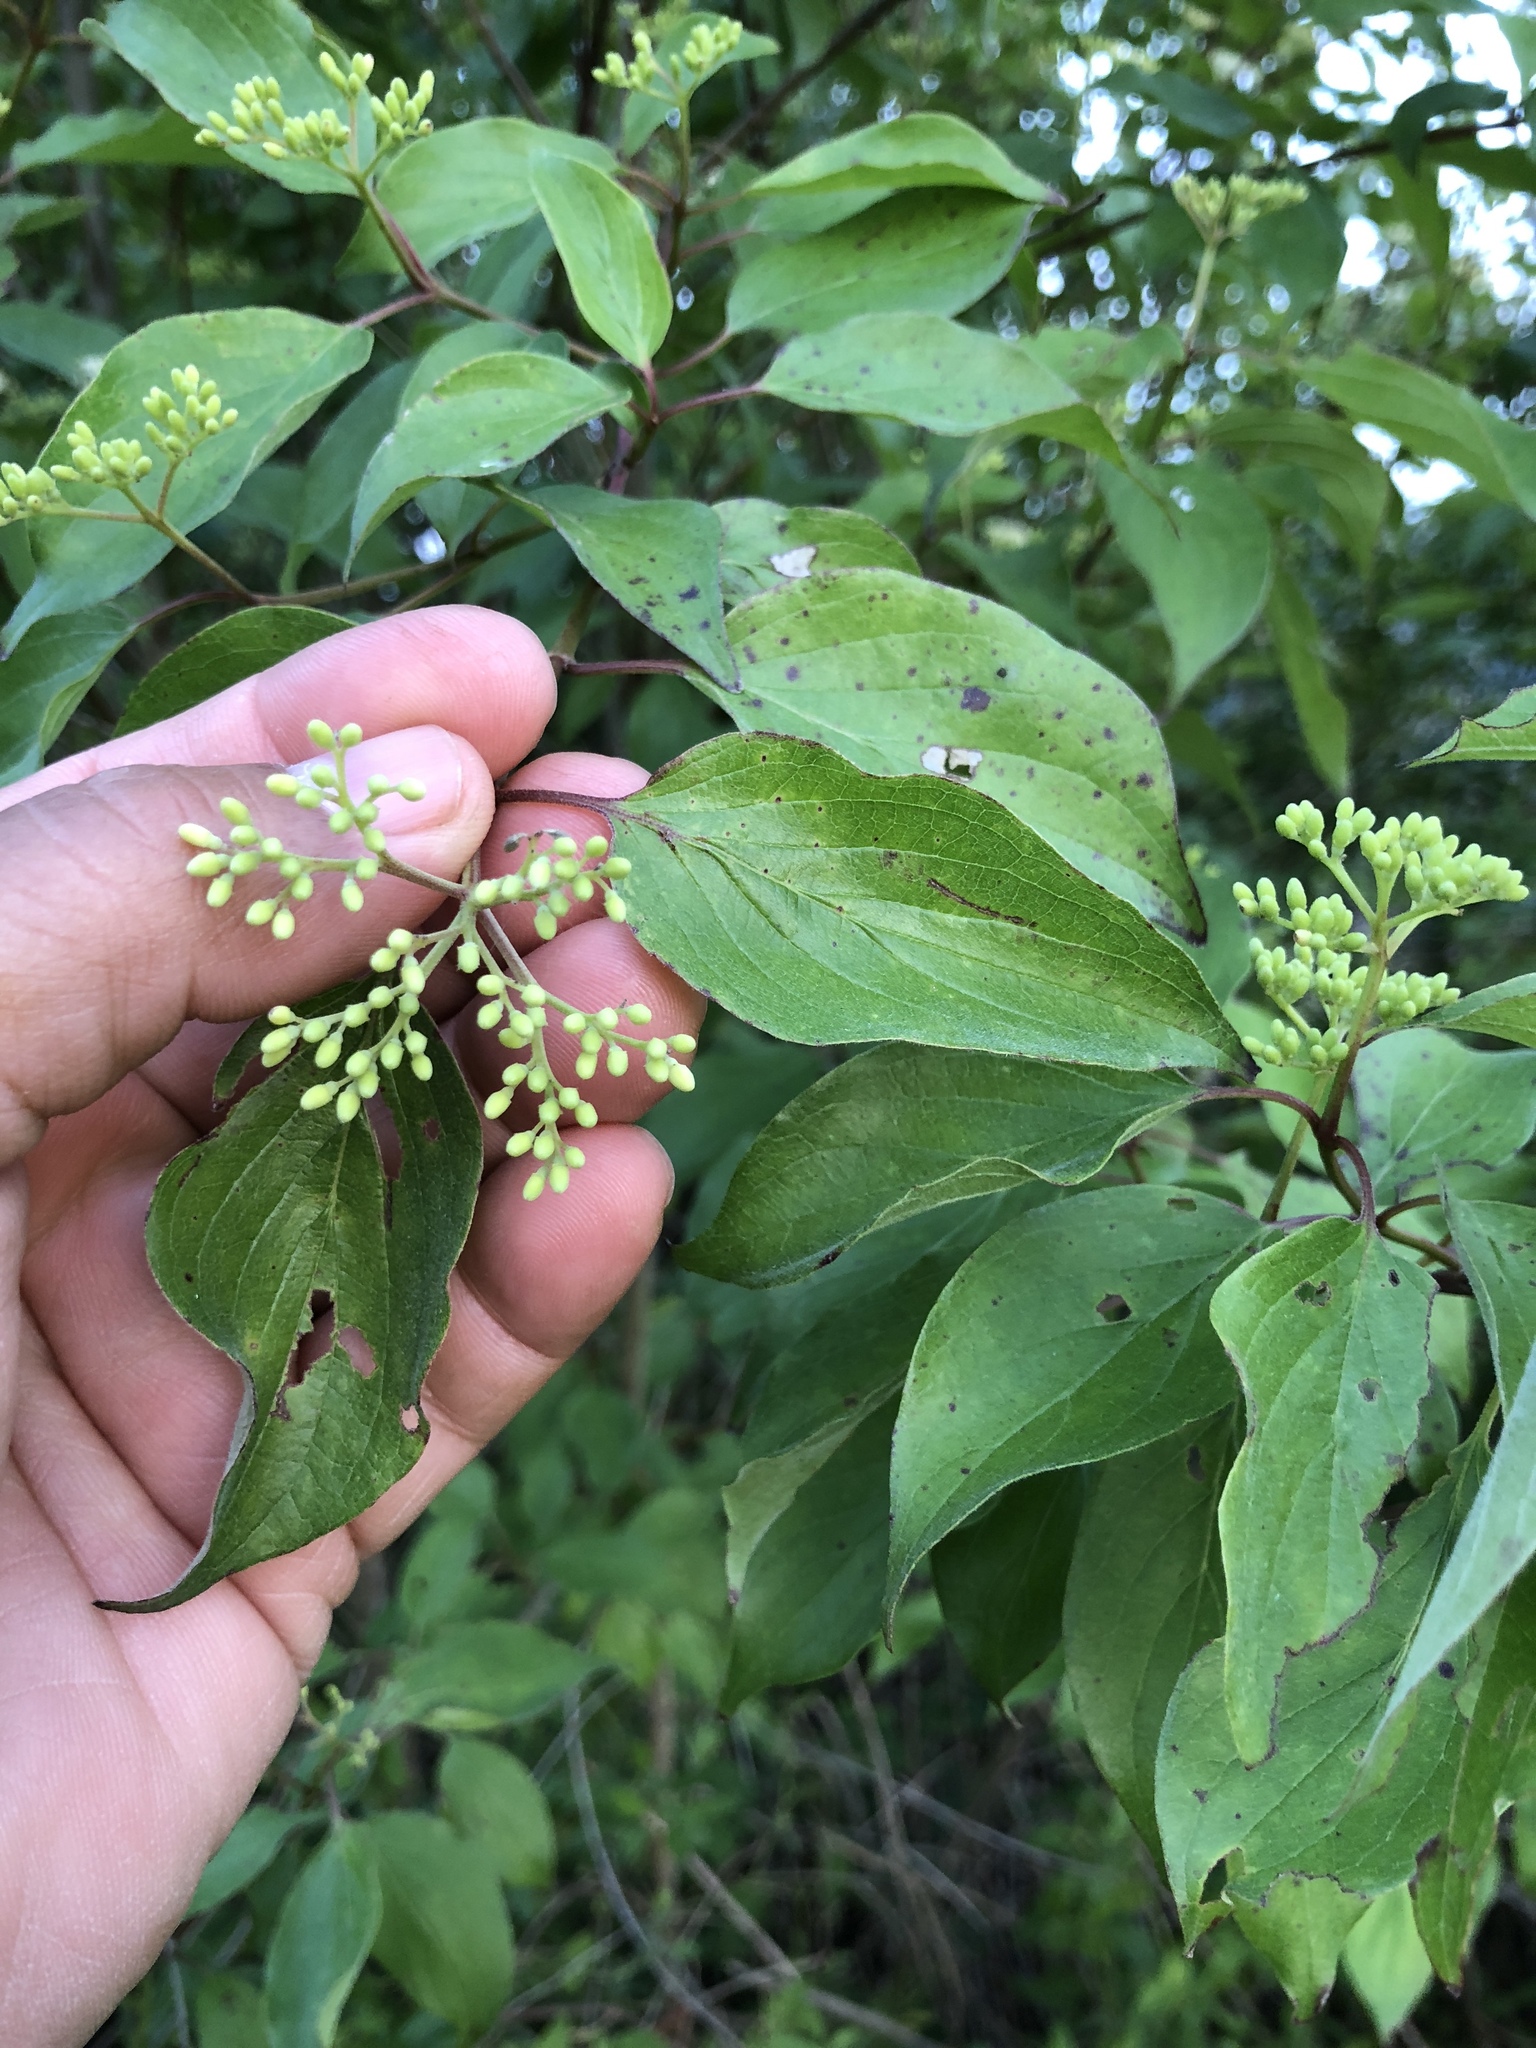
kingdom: Plantae
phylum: Tracheophyta
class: Magnoliopsida
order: Cornales
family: Cornaceae
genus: Cornus
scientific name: Cornus drummondii
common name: Rough-leaf dogwood
